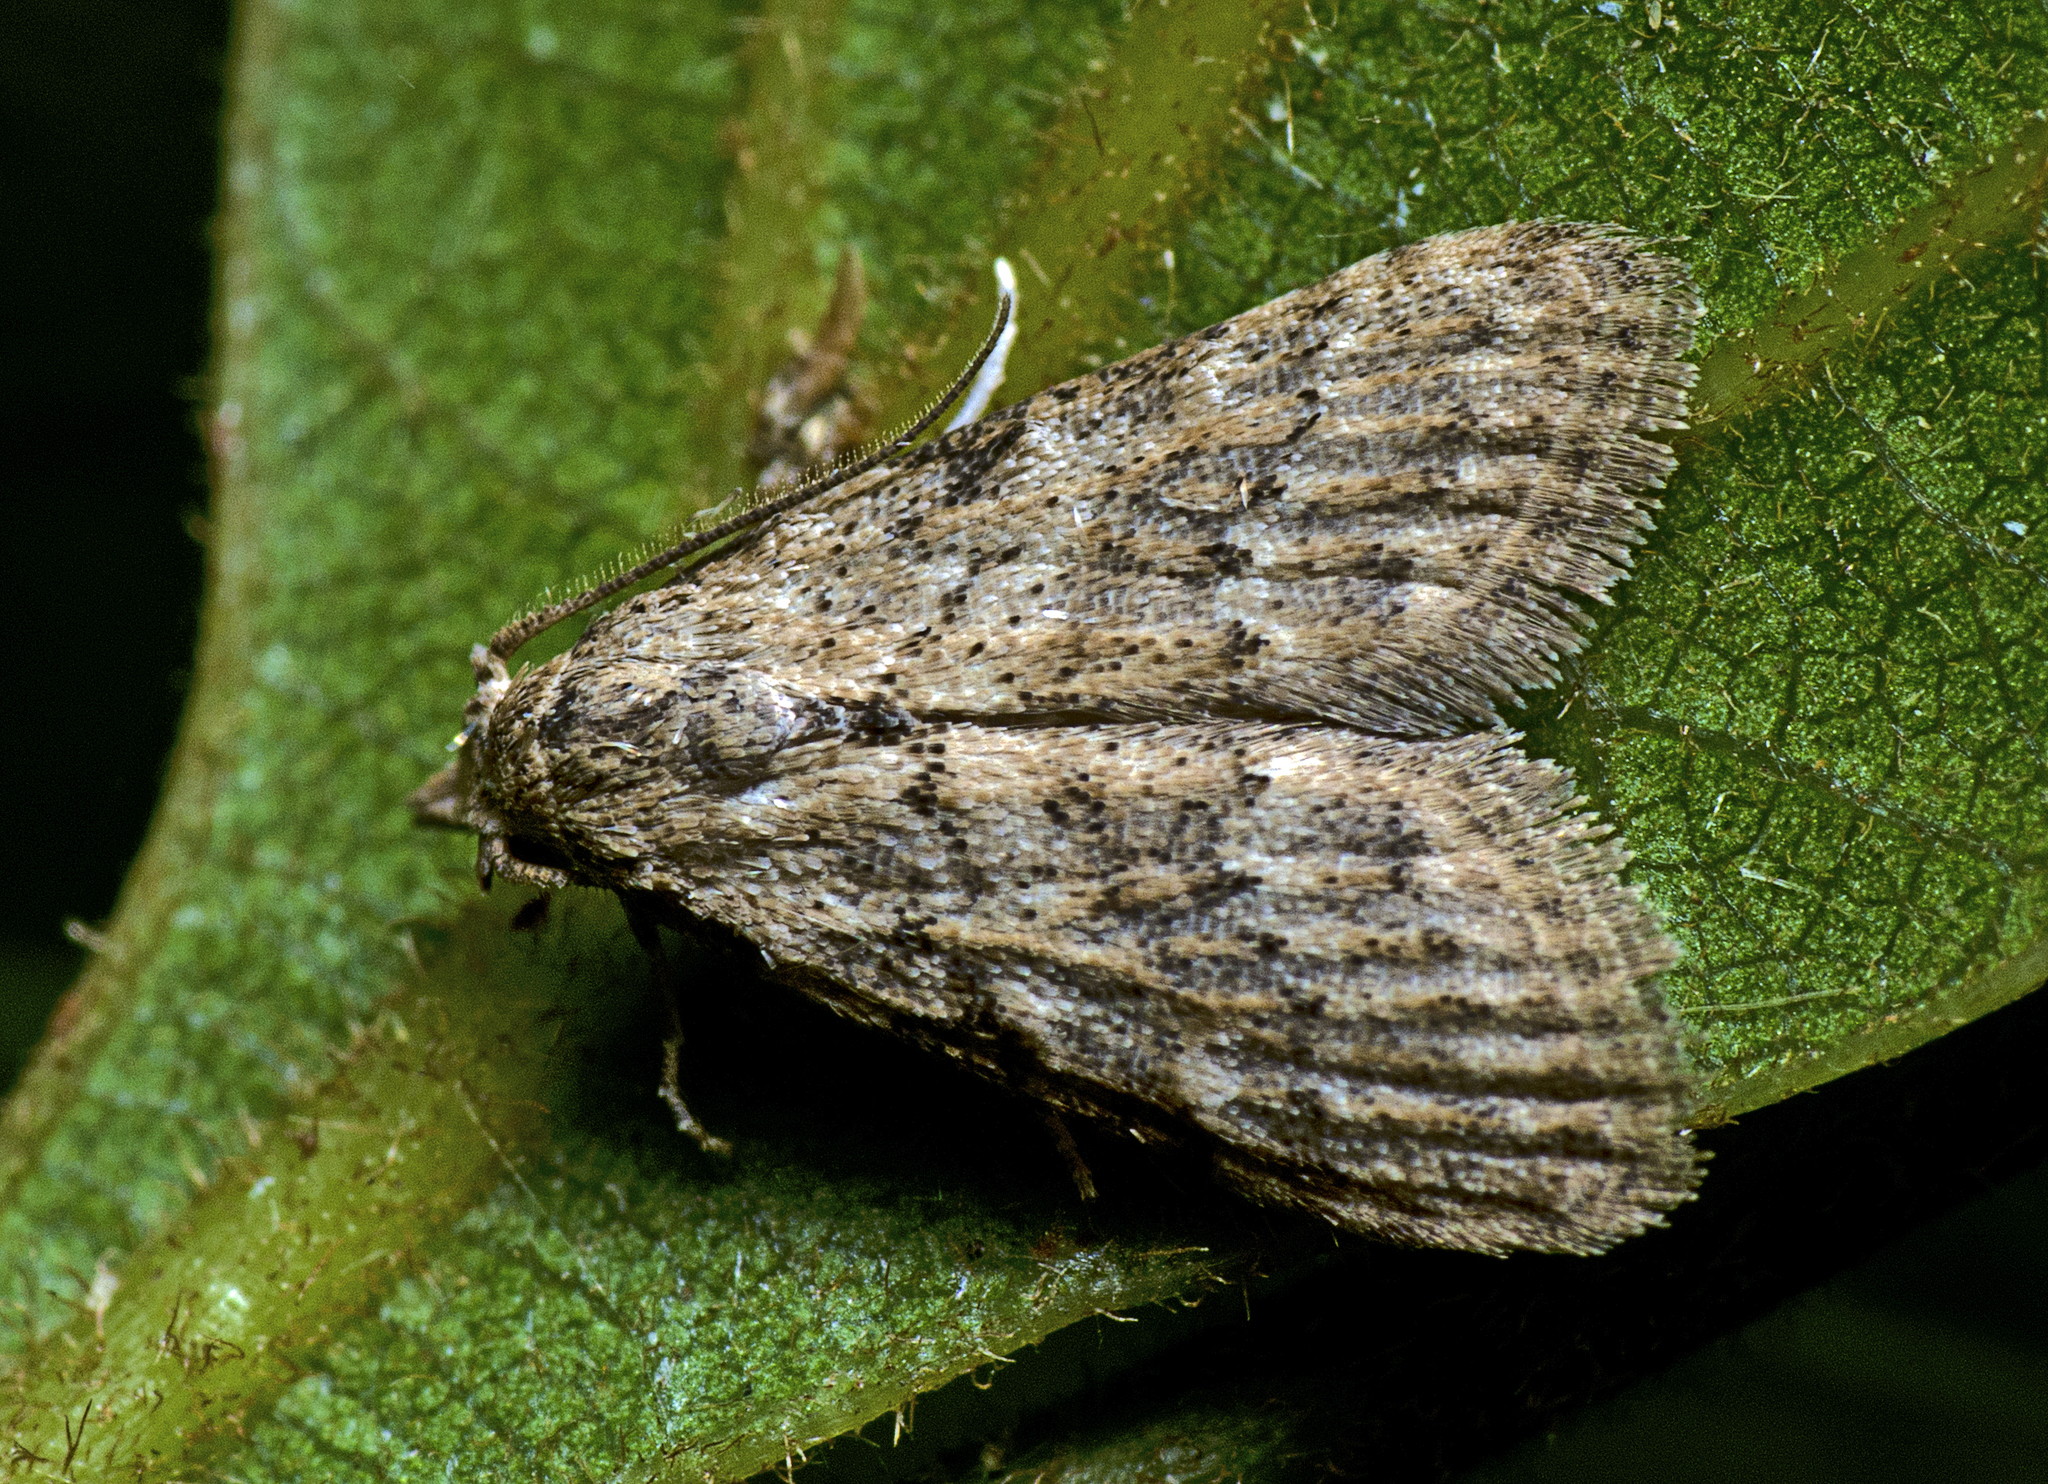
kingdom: Animalia
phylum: Arthropoda
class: Insecta
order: Lepidoptera
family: Nolidae
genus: Nola
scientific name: Nola squalida
